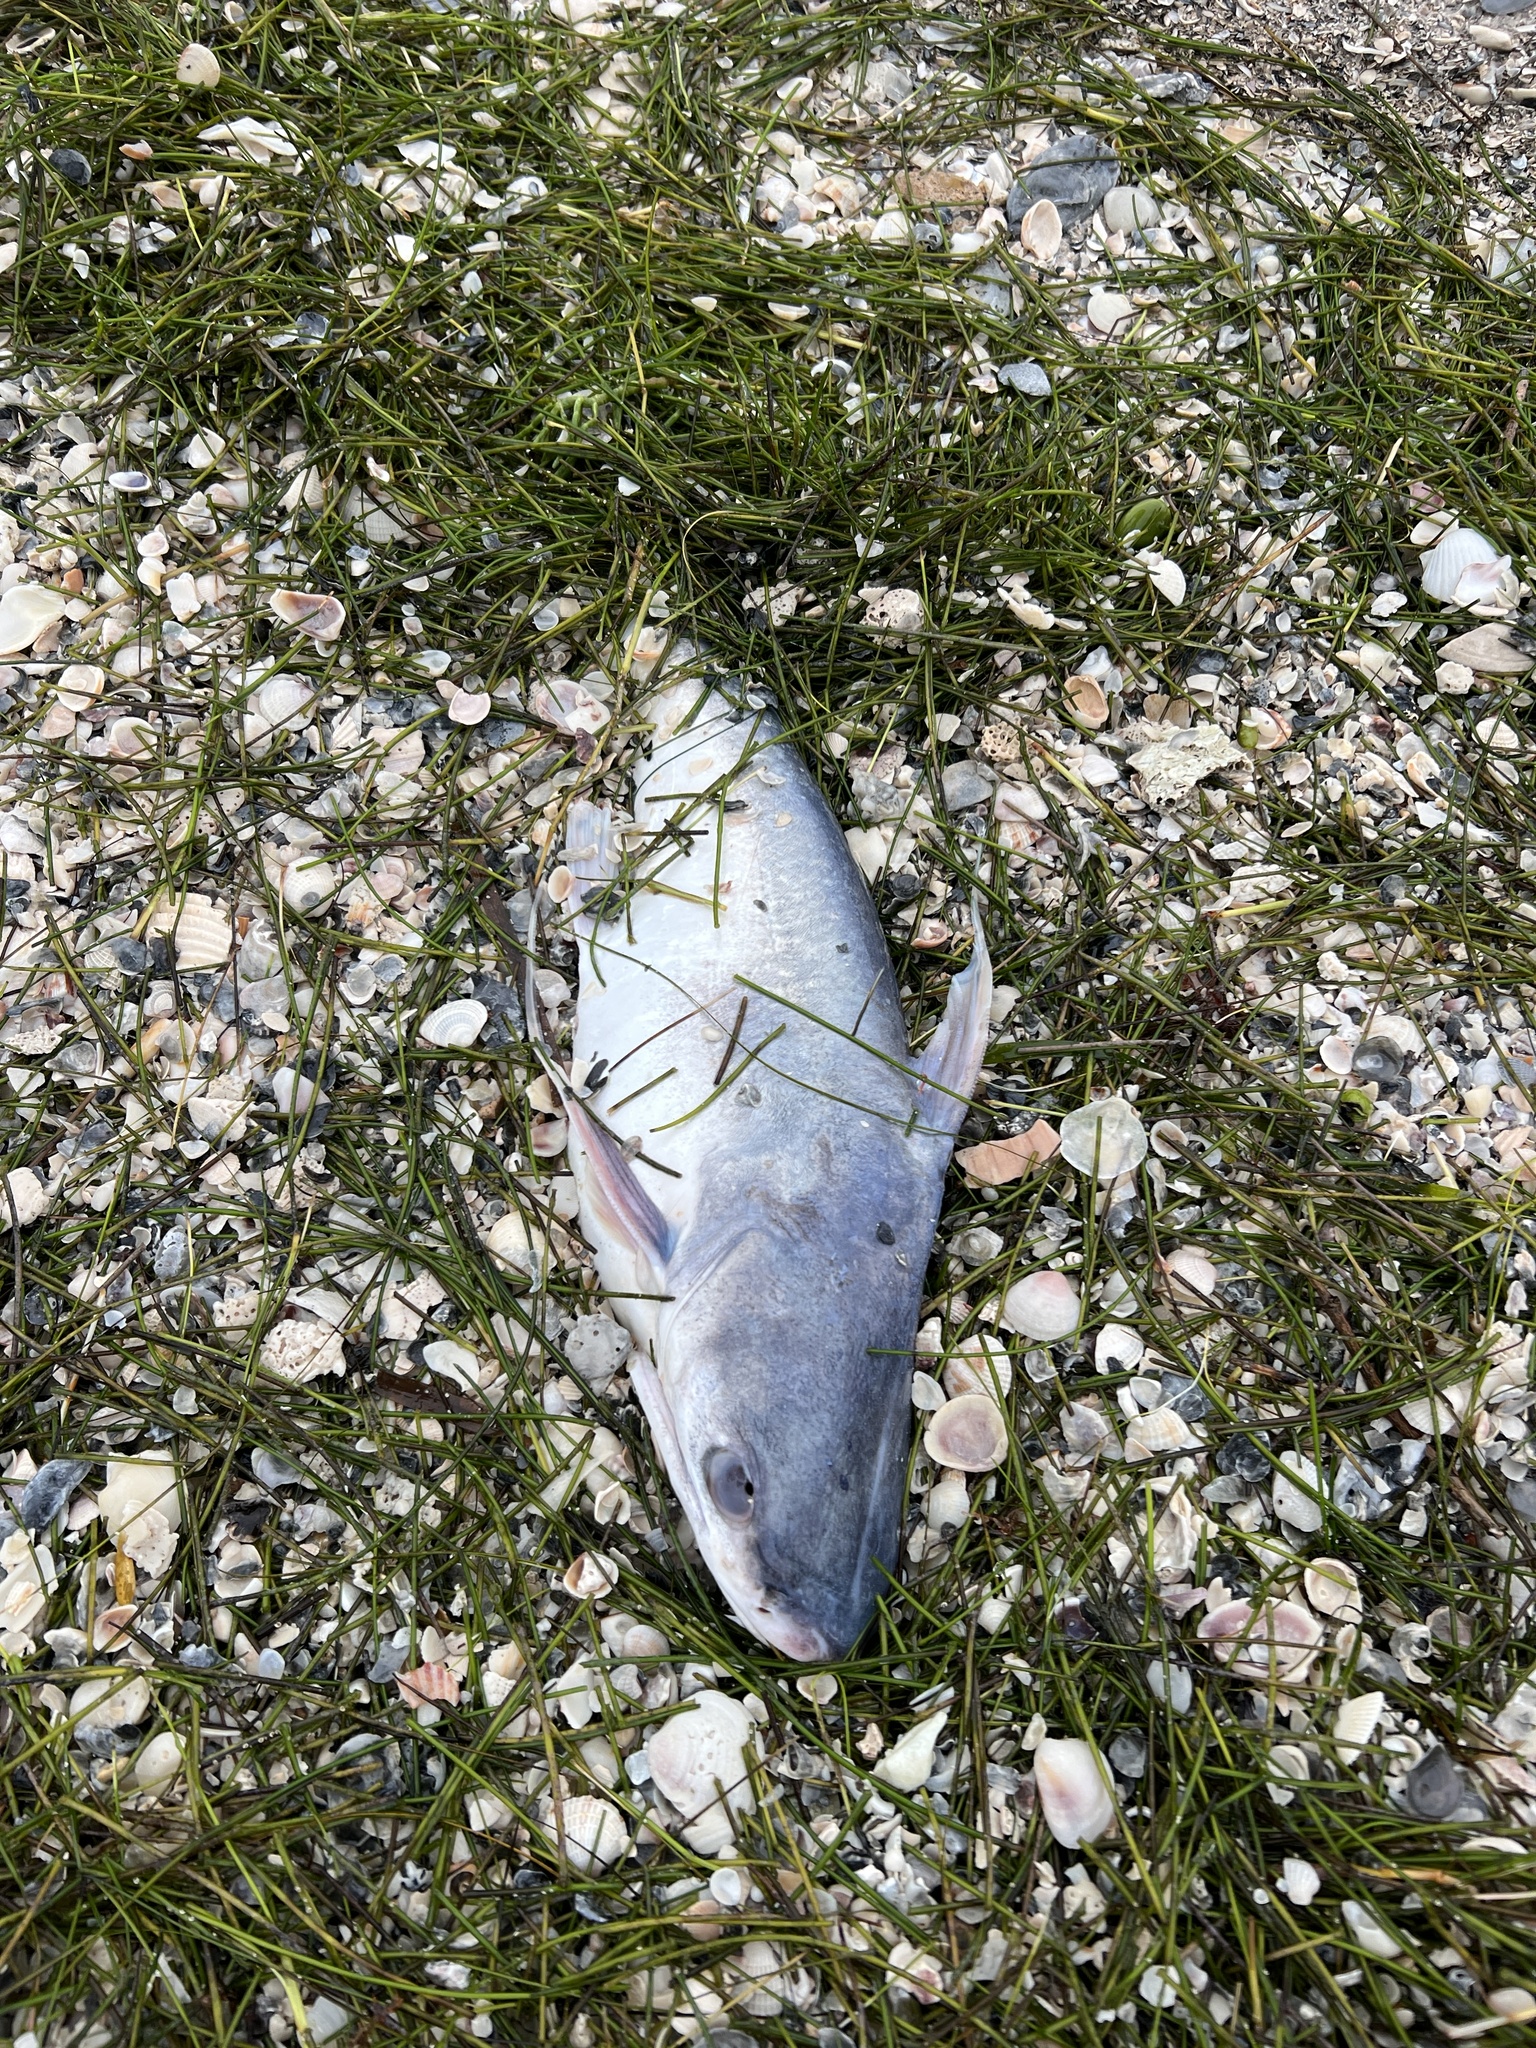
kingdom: Animalia
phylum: Chordata
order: Siluriformes
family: Ariidae
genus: Bagre
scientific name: Bagre marinus
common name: Gafftopsail sea catfish
